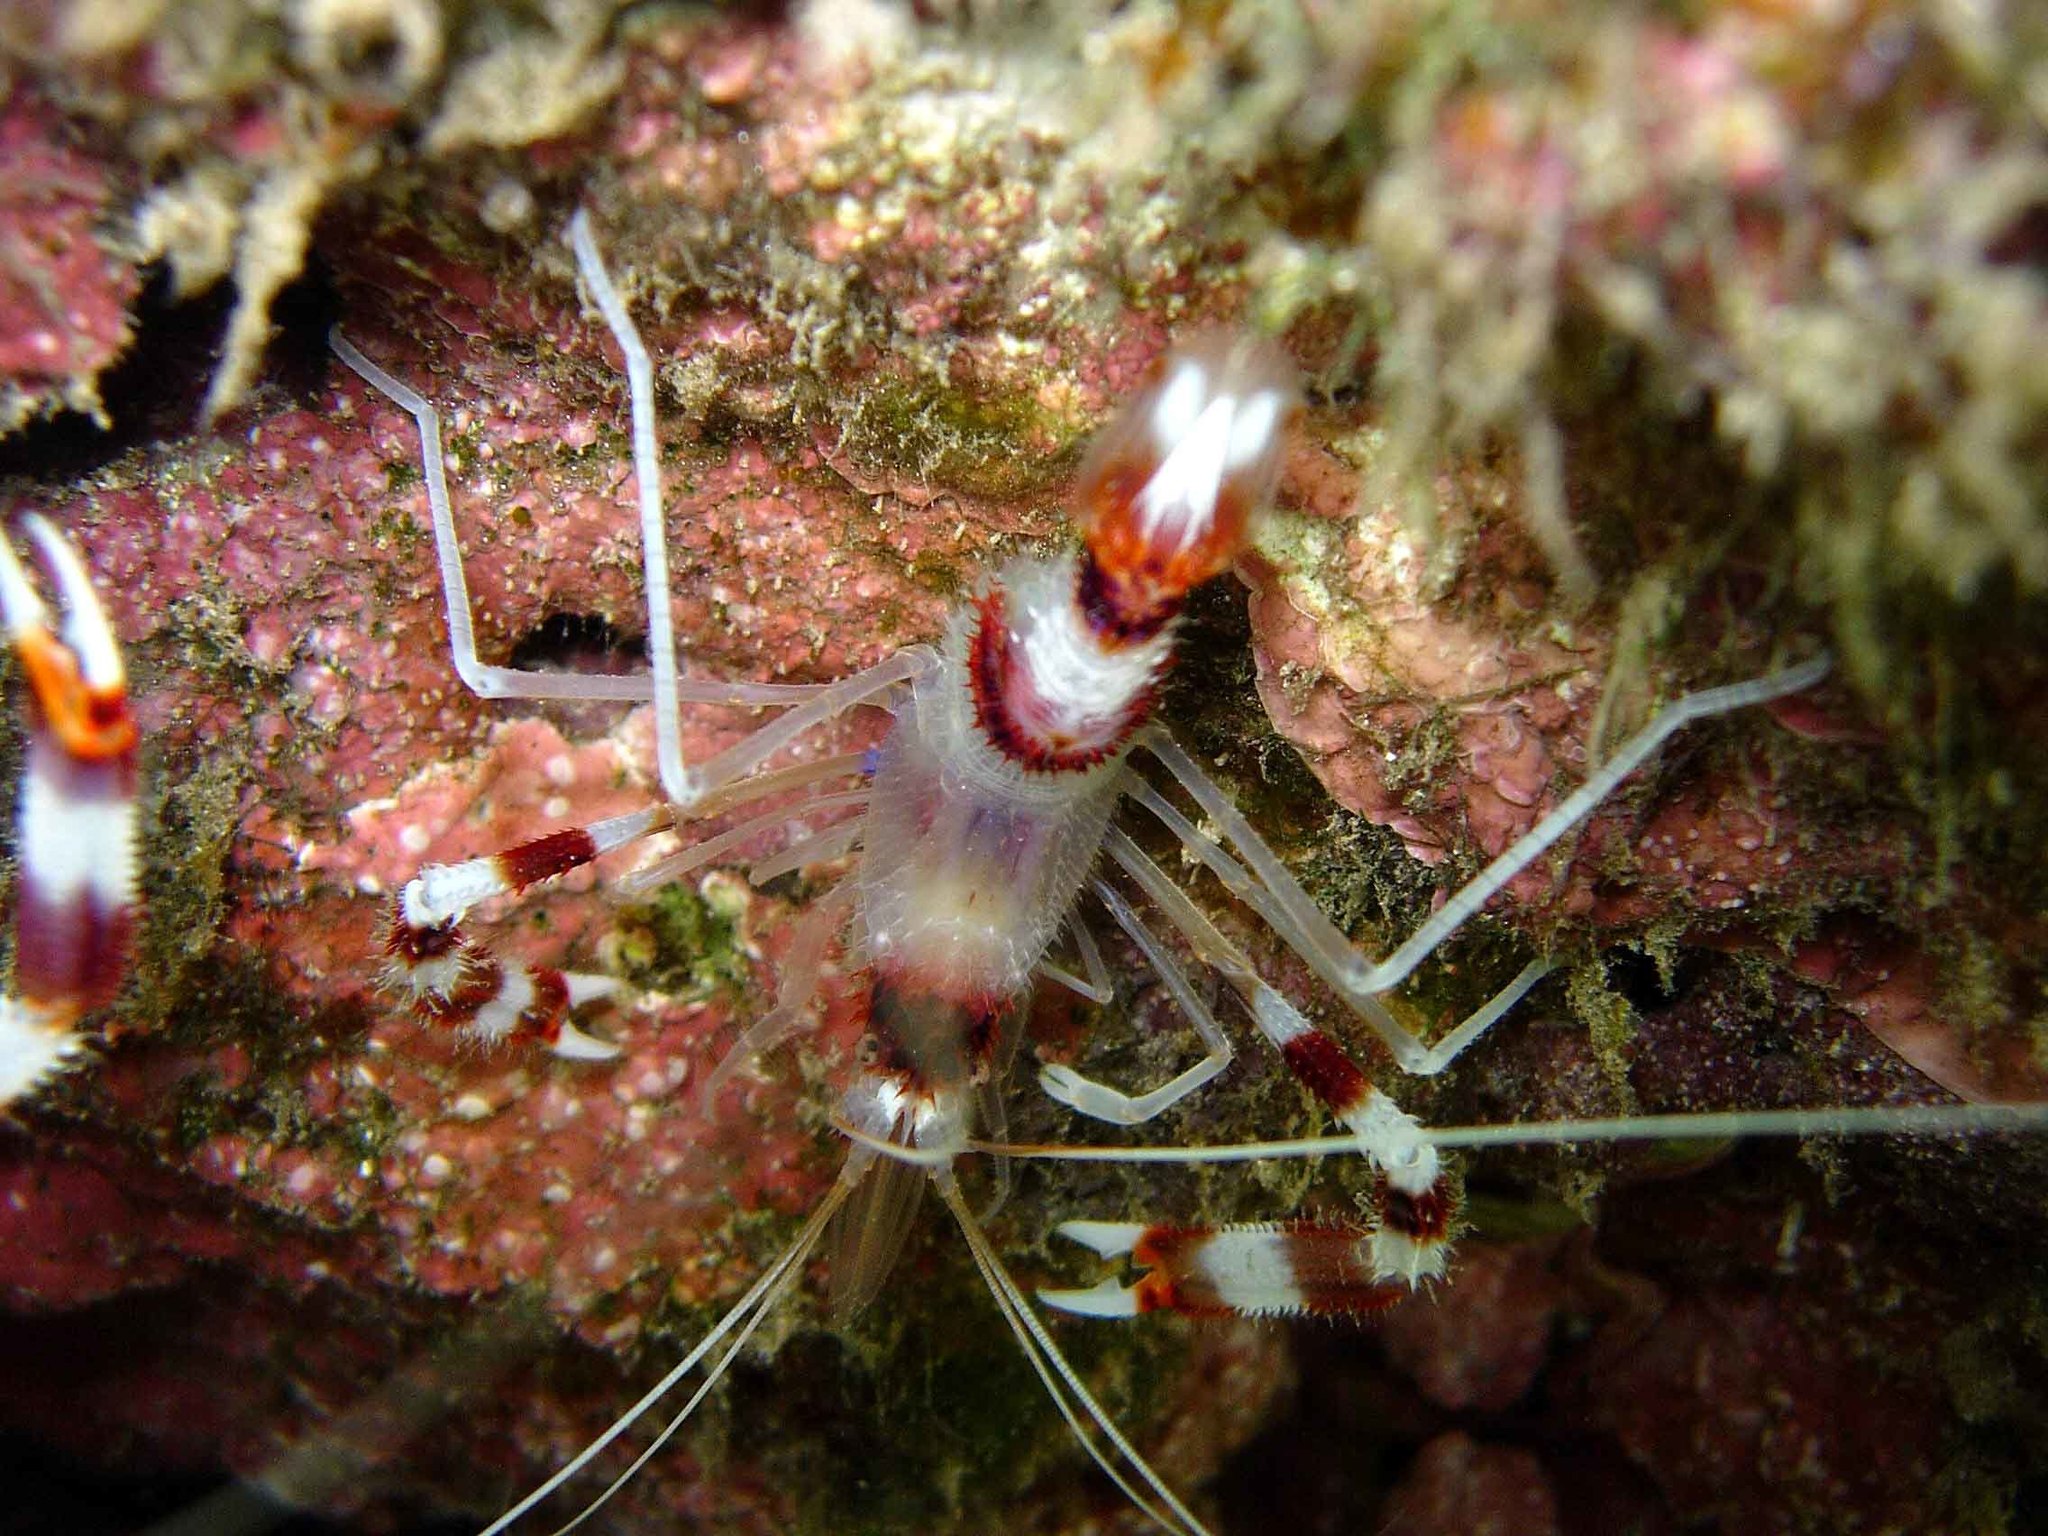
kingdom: Animalia
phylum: Arthropoda
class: Malacostraca
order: Decapoda
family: Stenopodidae
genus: Stenopus
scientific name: Stenopus hispidus
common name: Banded coral shrimp
